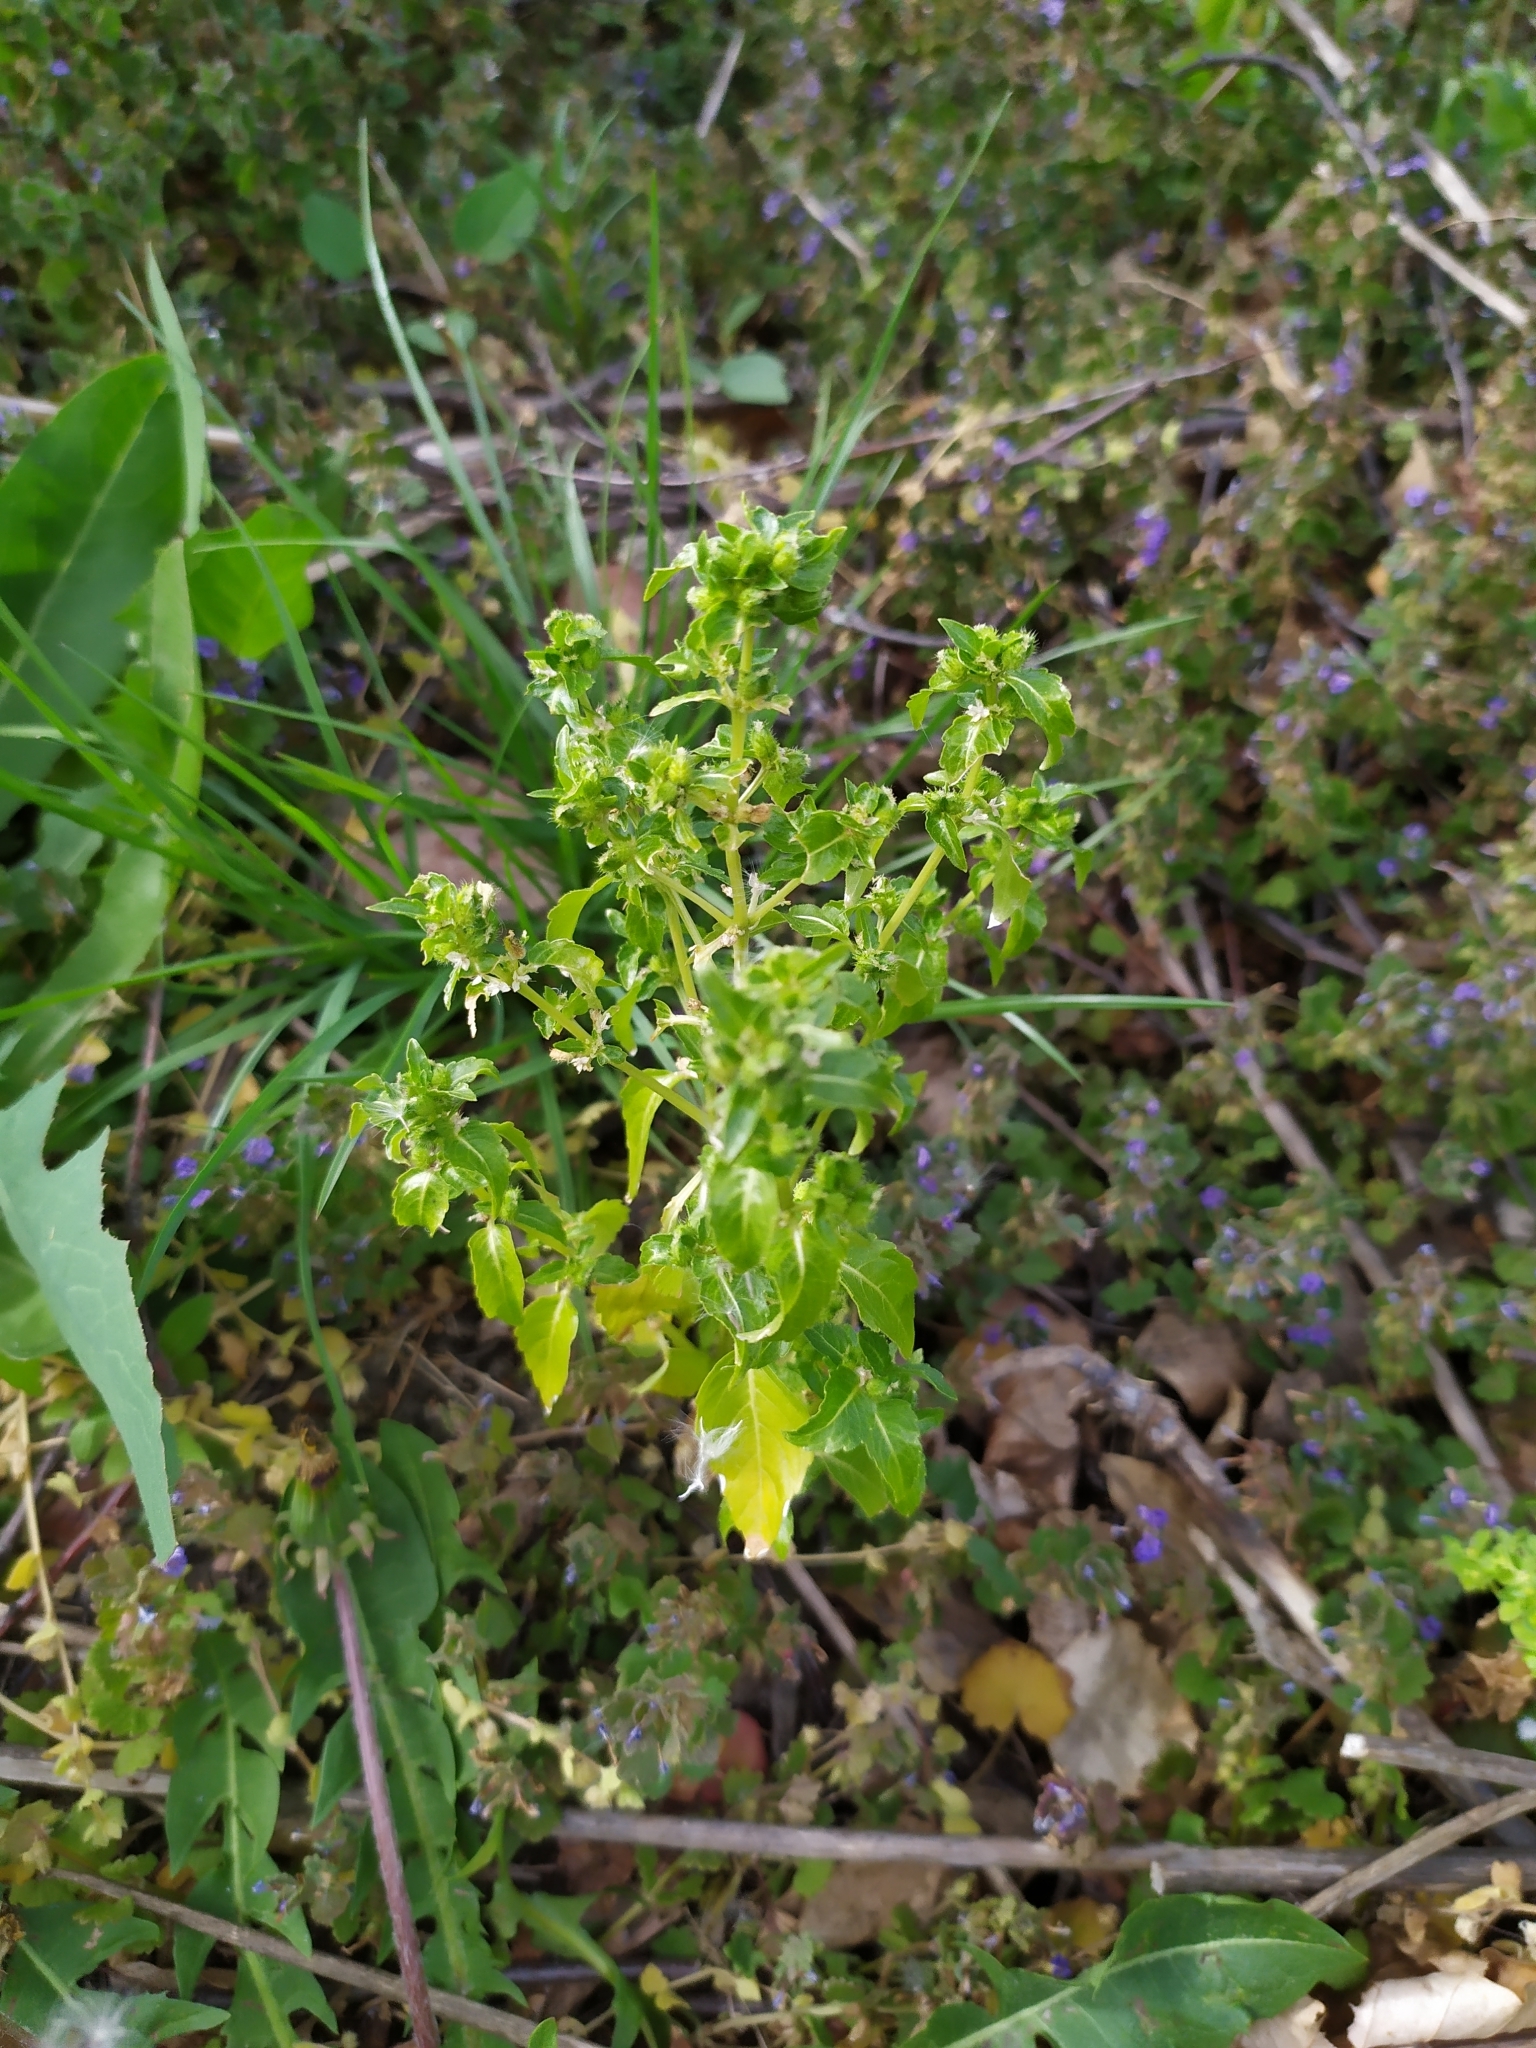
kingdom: Plantae
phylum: Tracheophyta
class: Magnoliopsida
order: Malpighiales
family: Euphorbiaceae
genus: Mercurialis
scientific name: Mercurialis annua
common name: Annual mercury
